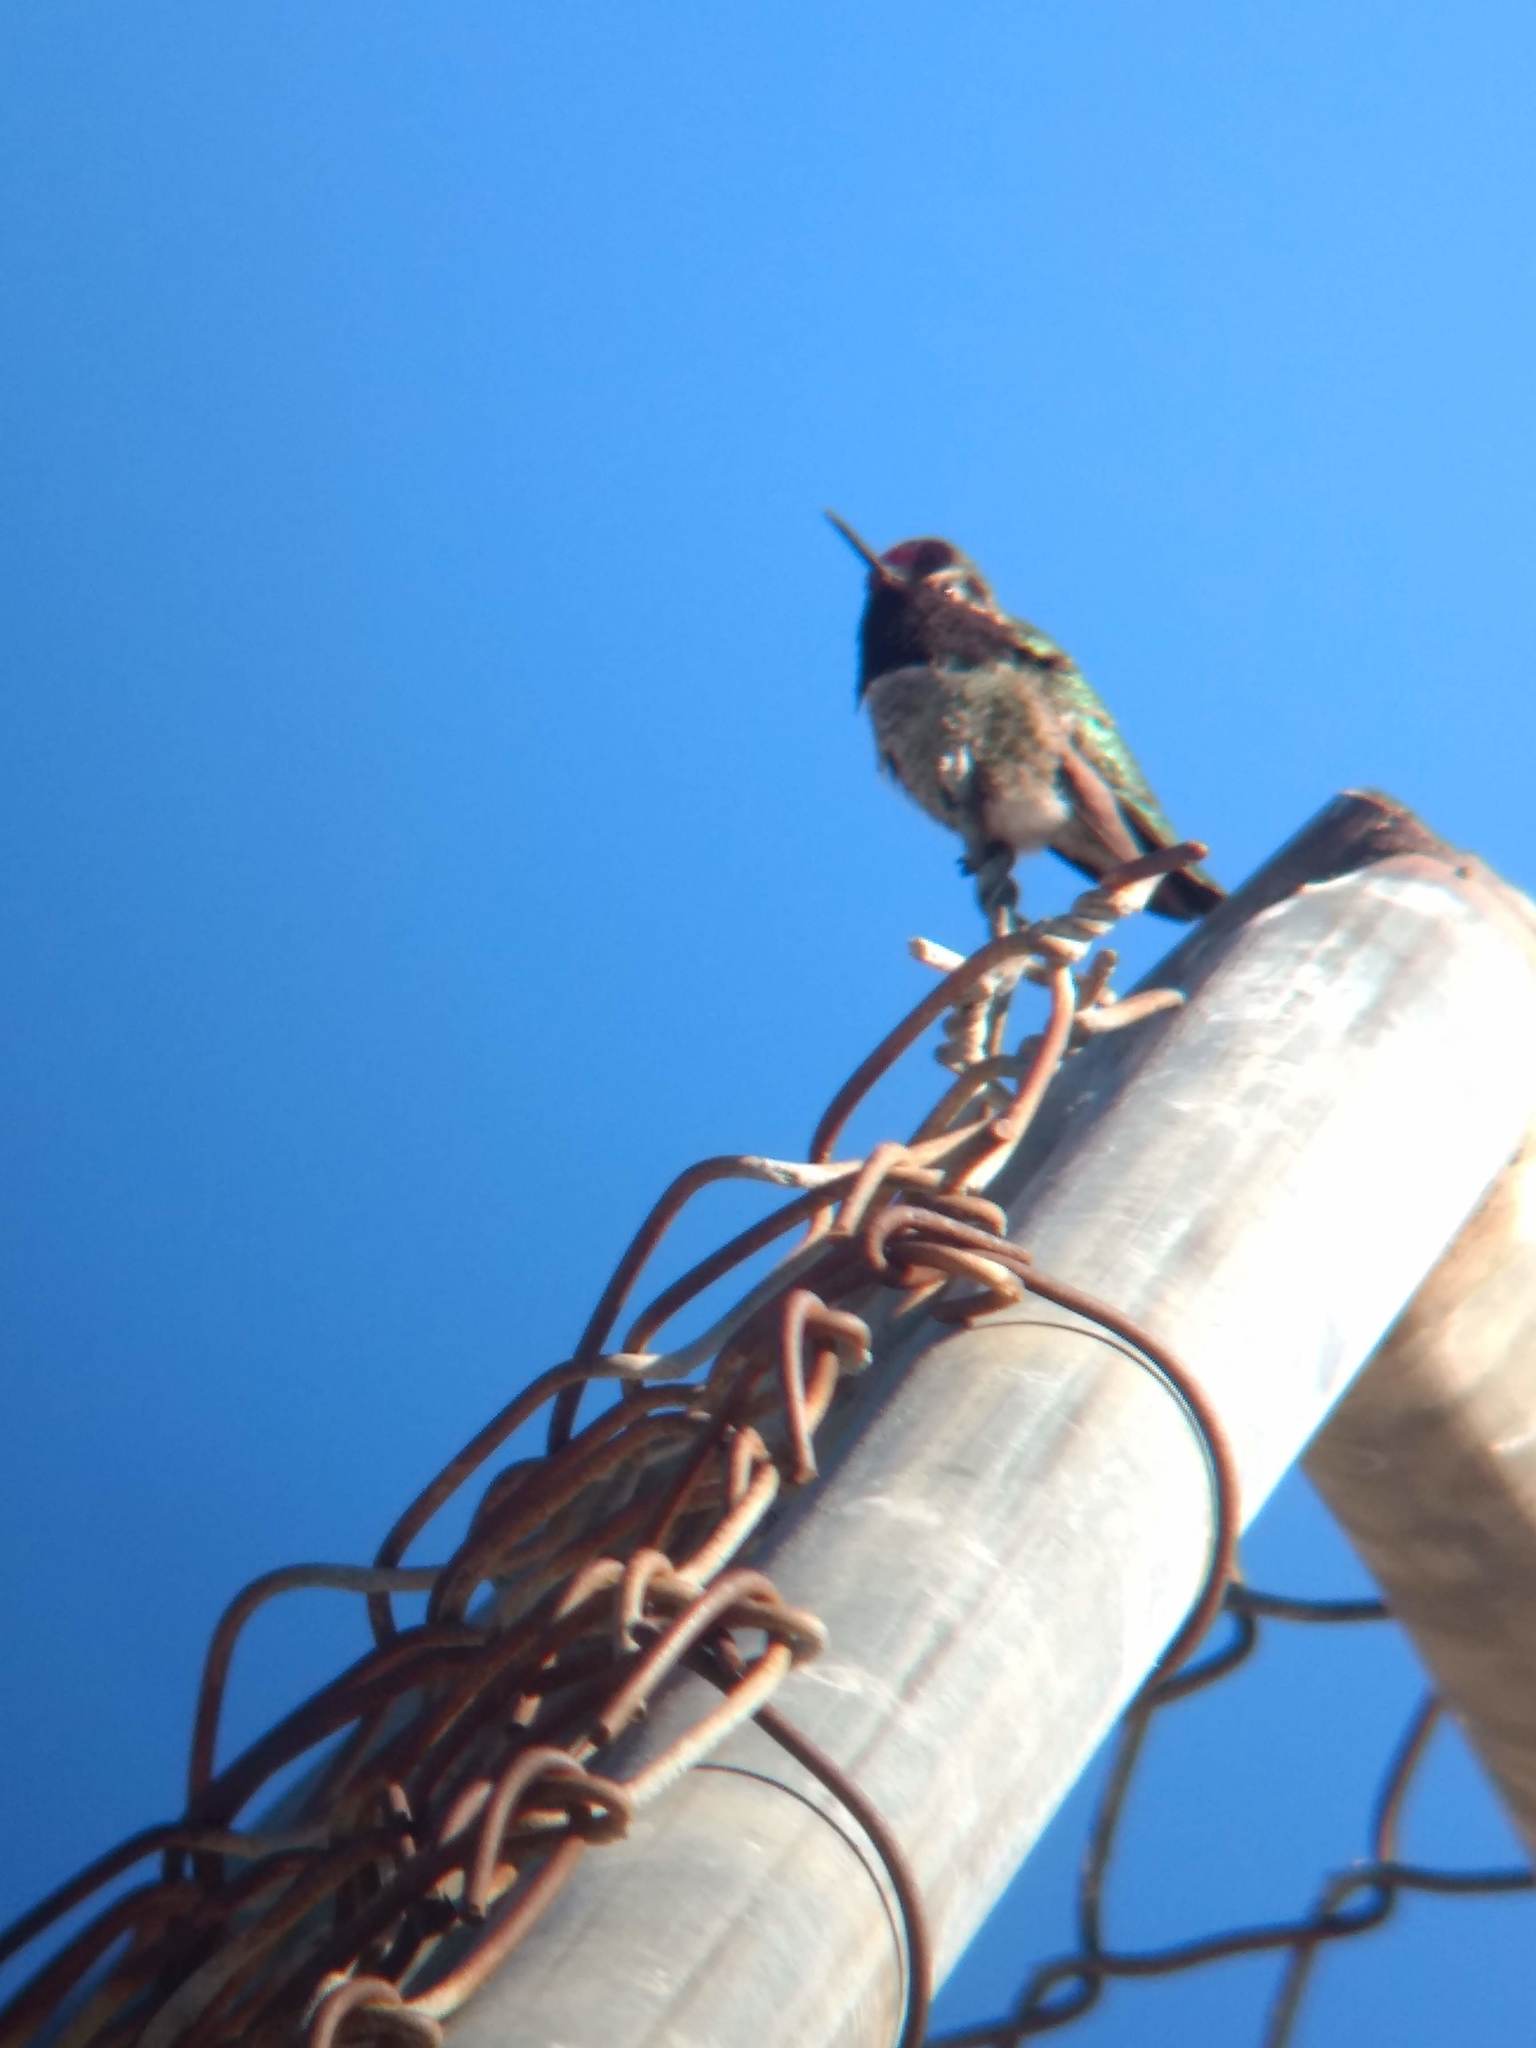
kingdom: Animalia
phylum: Chordata
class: Aves
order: Apodiformes
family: Trochilidae
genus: Calypte
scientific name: Calypte anna
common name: Anna's hummingbird
